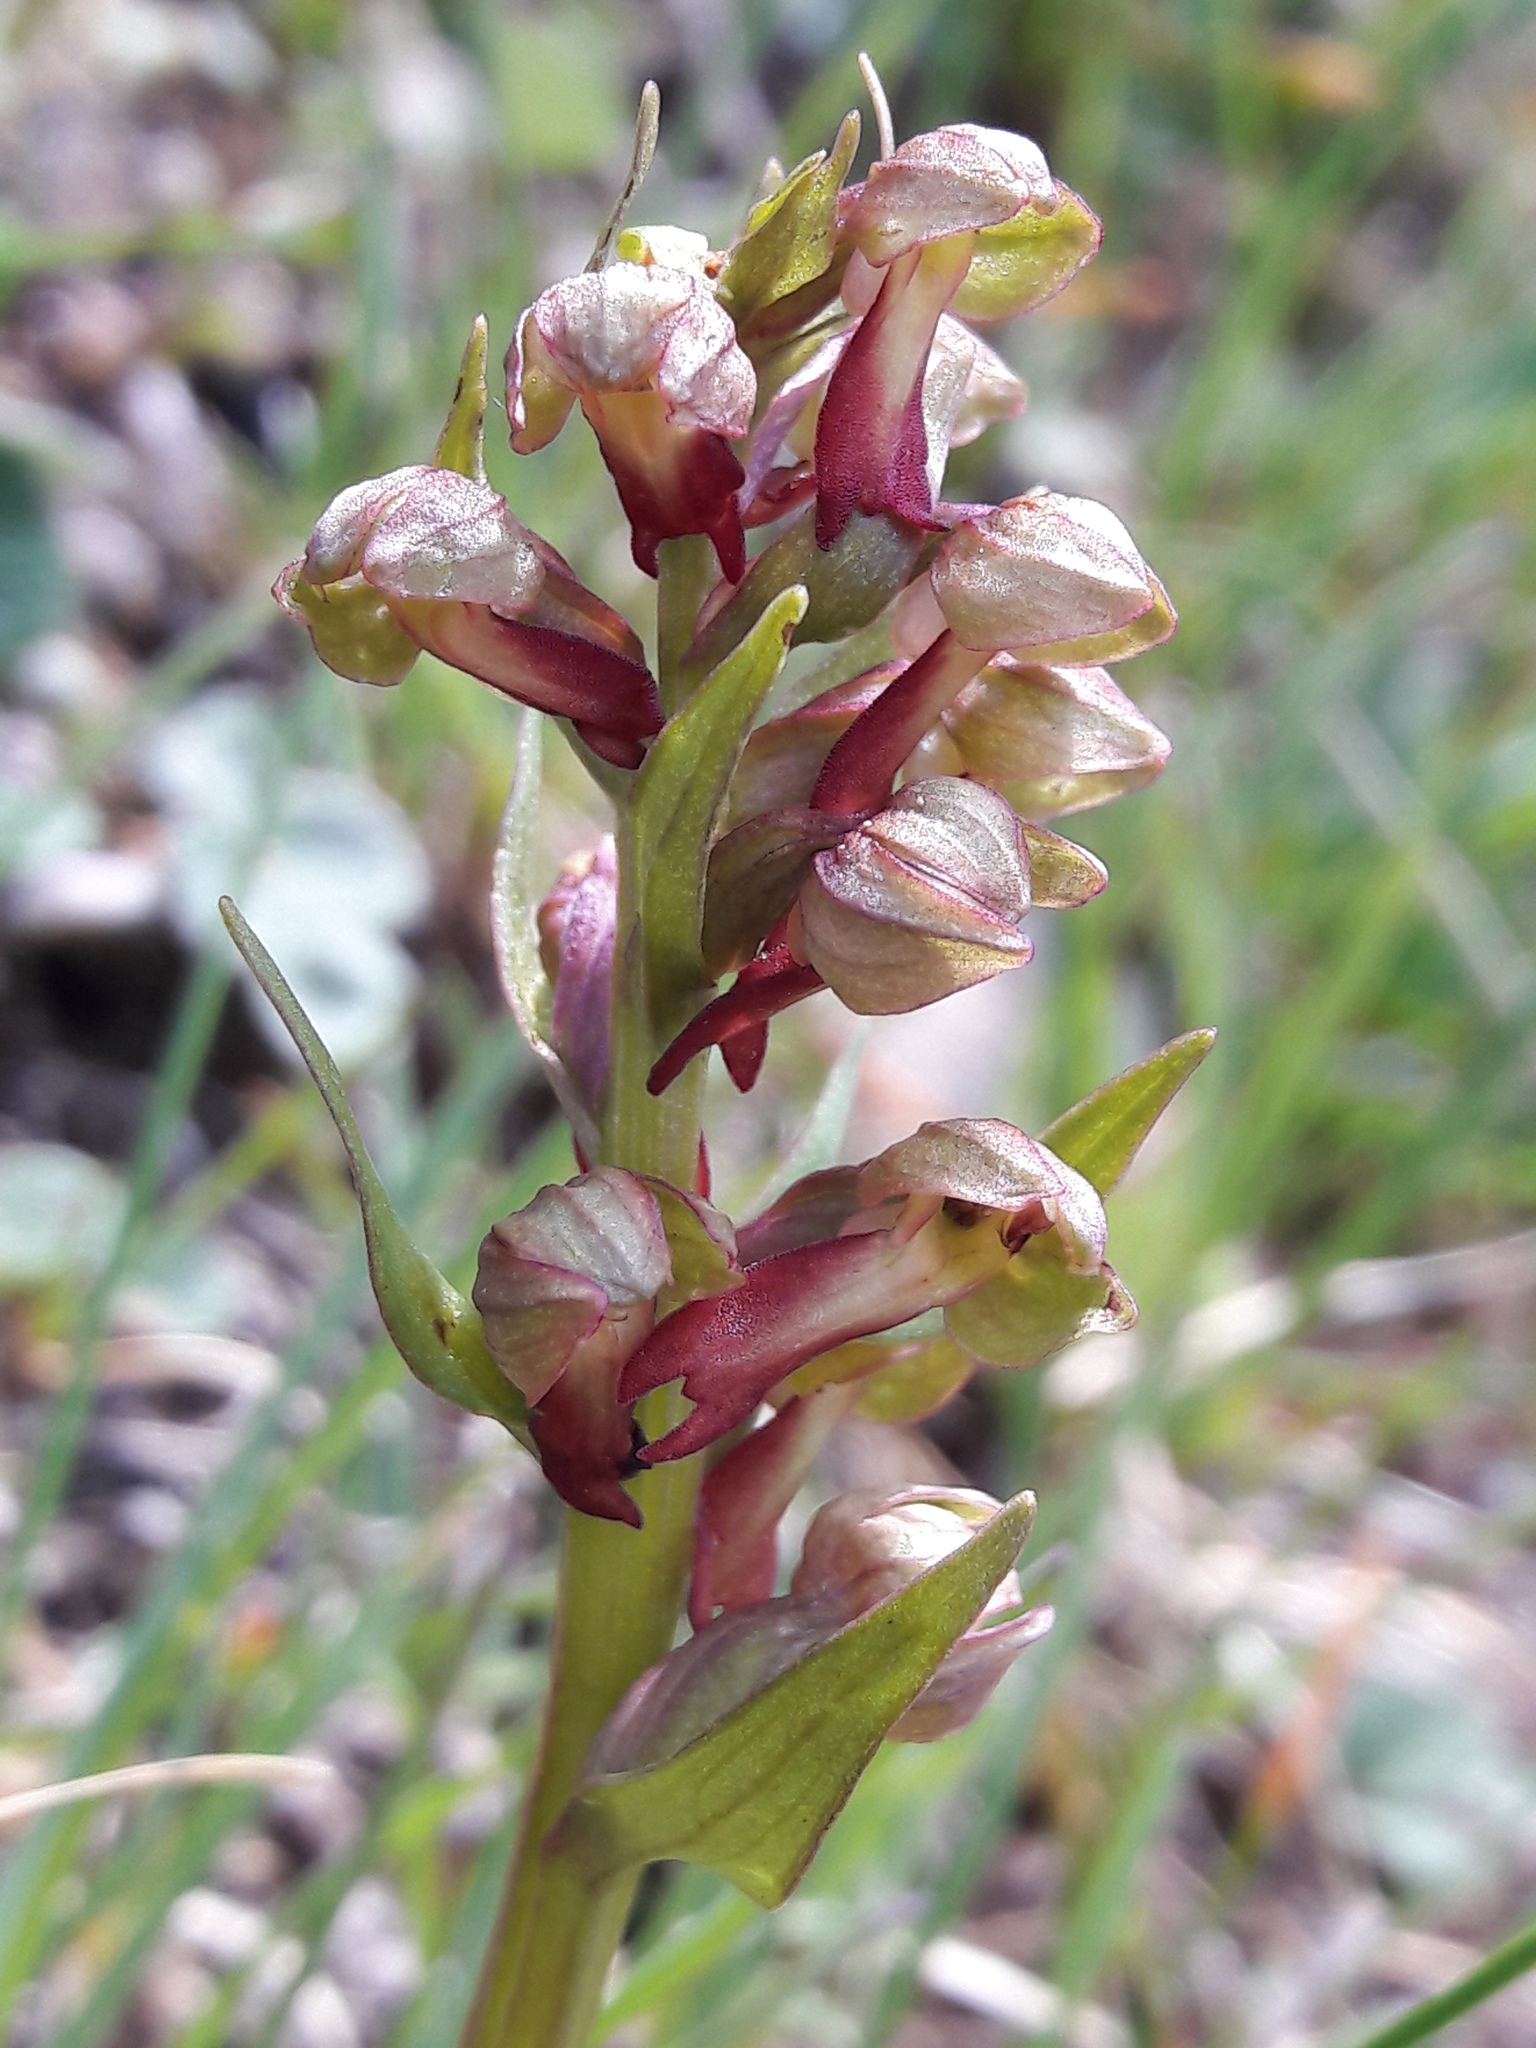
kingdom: Plantae
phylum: Tracheophyta
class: Liliopsida
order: Asparagales
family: Orchidaceae
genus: Dactylorhiza
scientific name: Dactylorhiza viridis
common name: Longbract frog orchid
